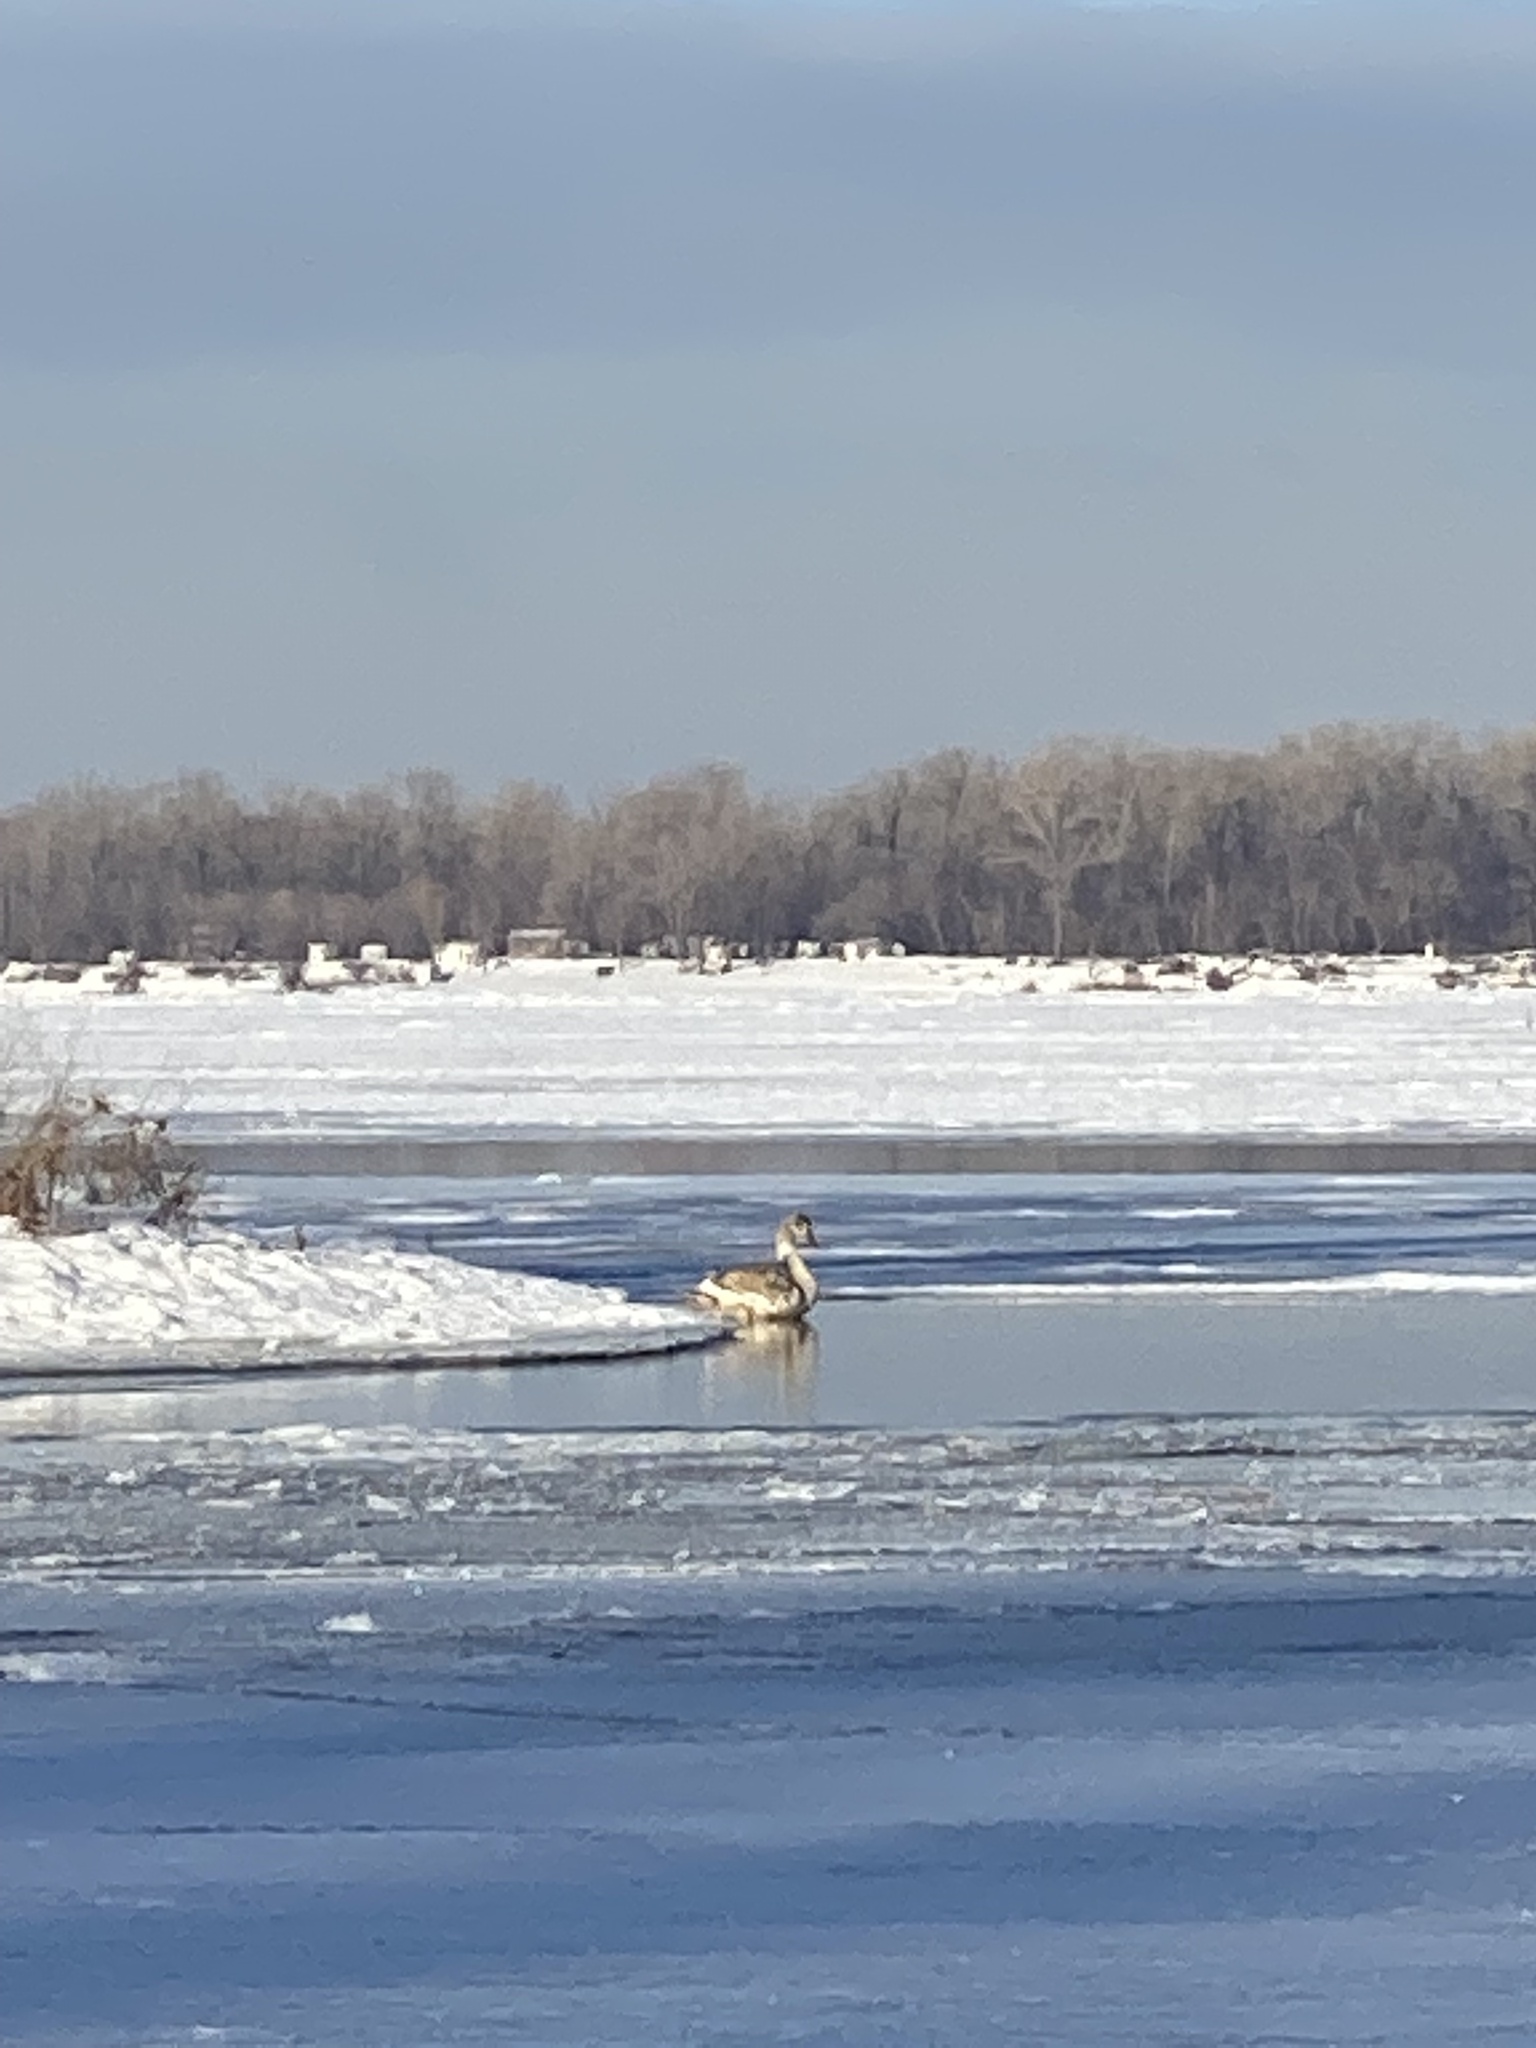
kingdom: Animalia
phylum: Chordata
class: Aves
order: Anseriformes
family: Anatidae
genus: Cygnus
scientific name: Cygnus olor
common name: Mute swan
